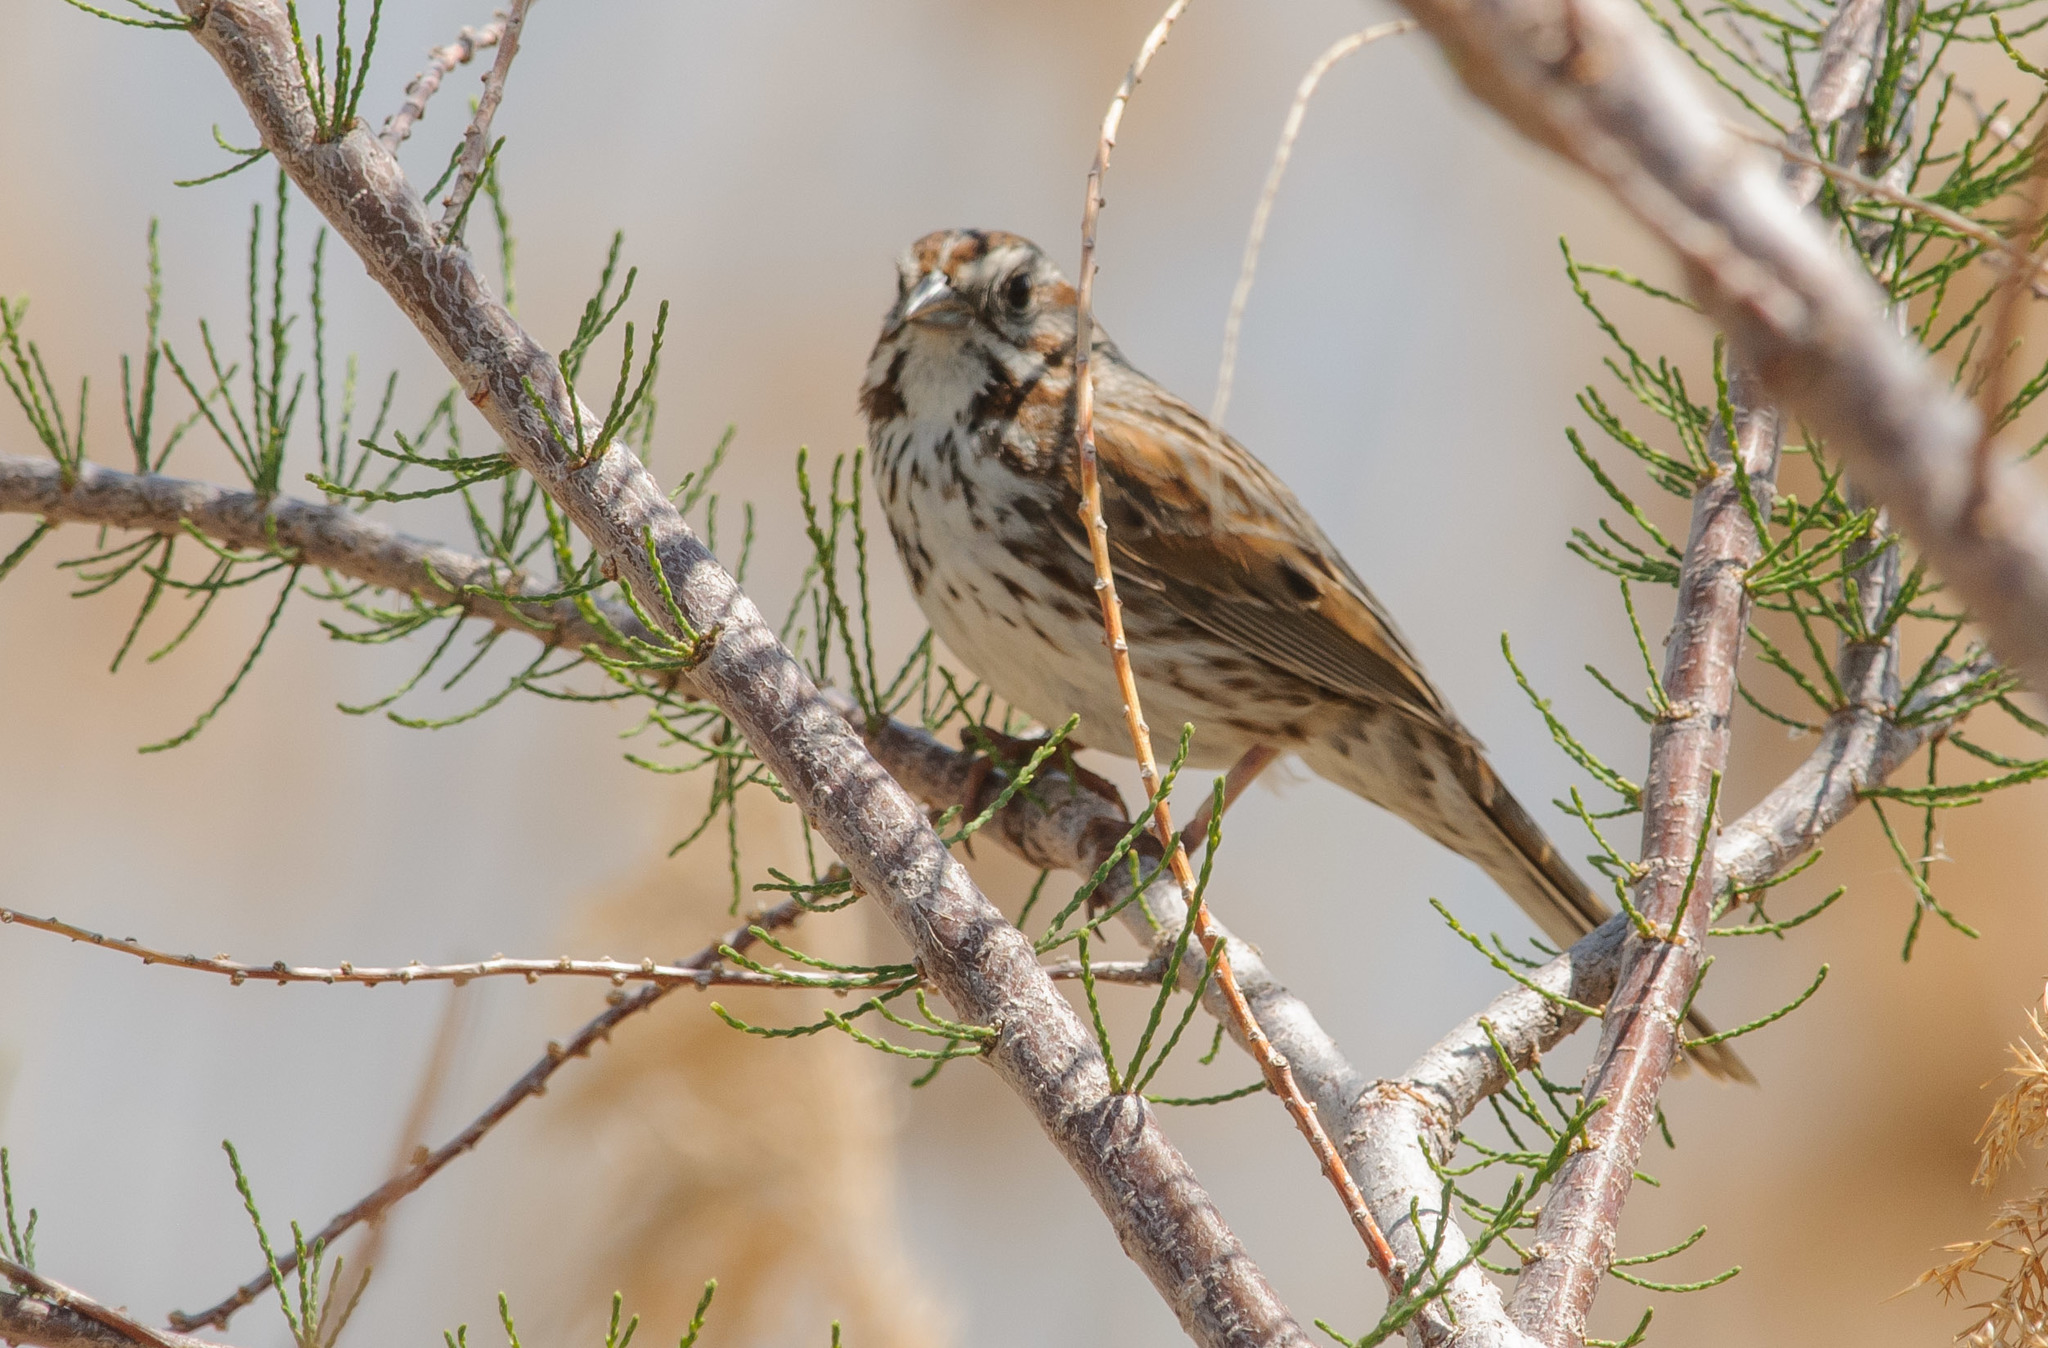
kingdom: Animalia
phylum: Chordata
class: Aves
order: Passeriformes
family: Passerellidae
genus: Melospiza
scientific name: Melospiza melodia
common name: Song sparrow
